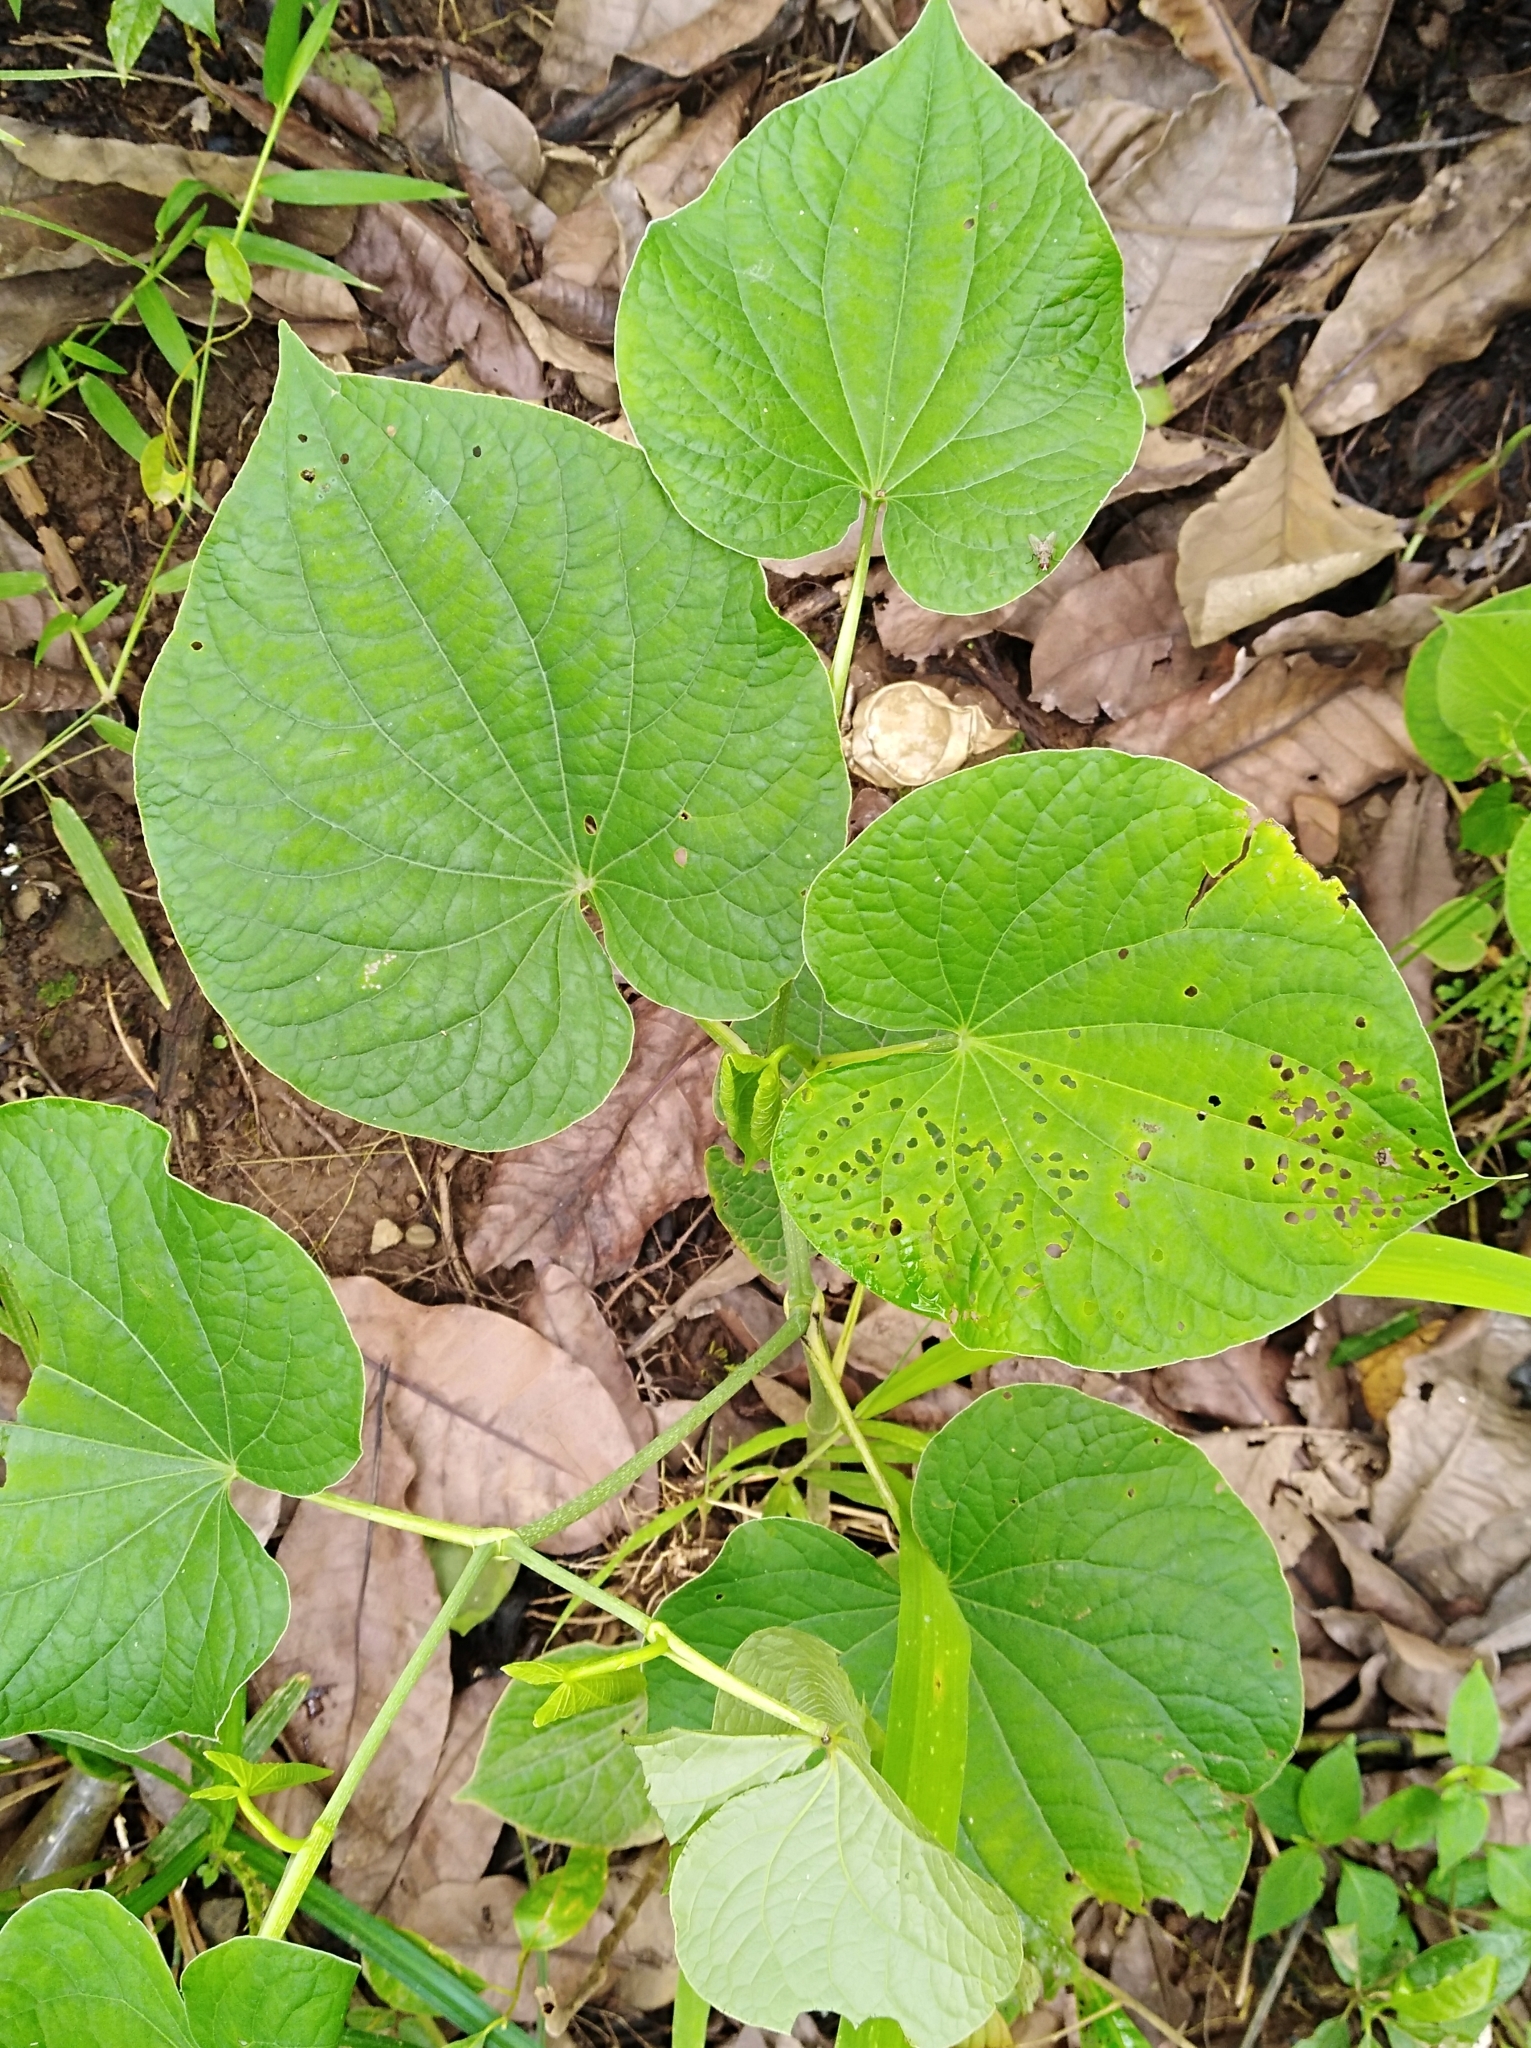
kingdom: Plantae
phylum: Tracheophyta
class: Magnoliopsida
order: Piperales
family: Piperaceae
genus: Piper
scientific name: Piper marginatum
